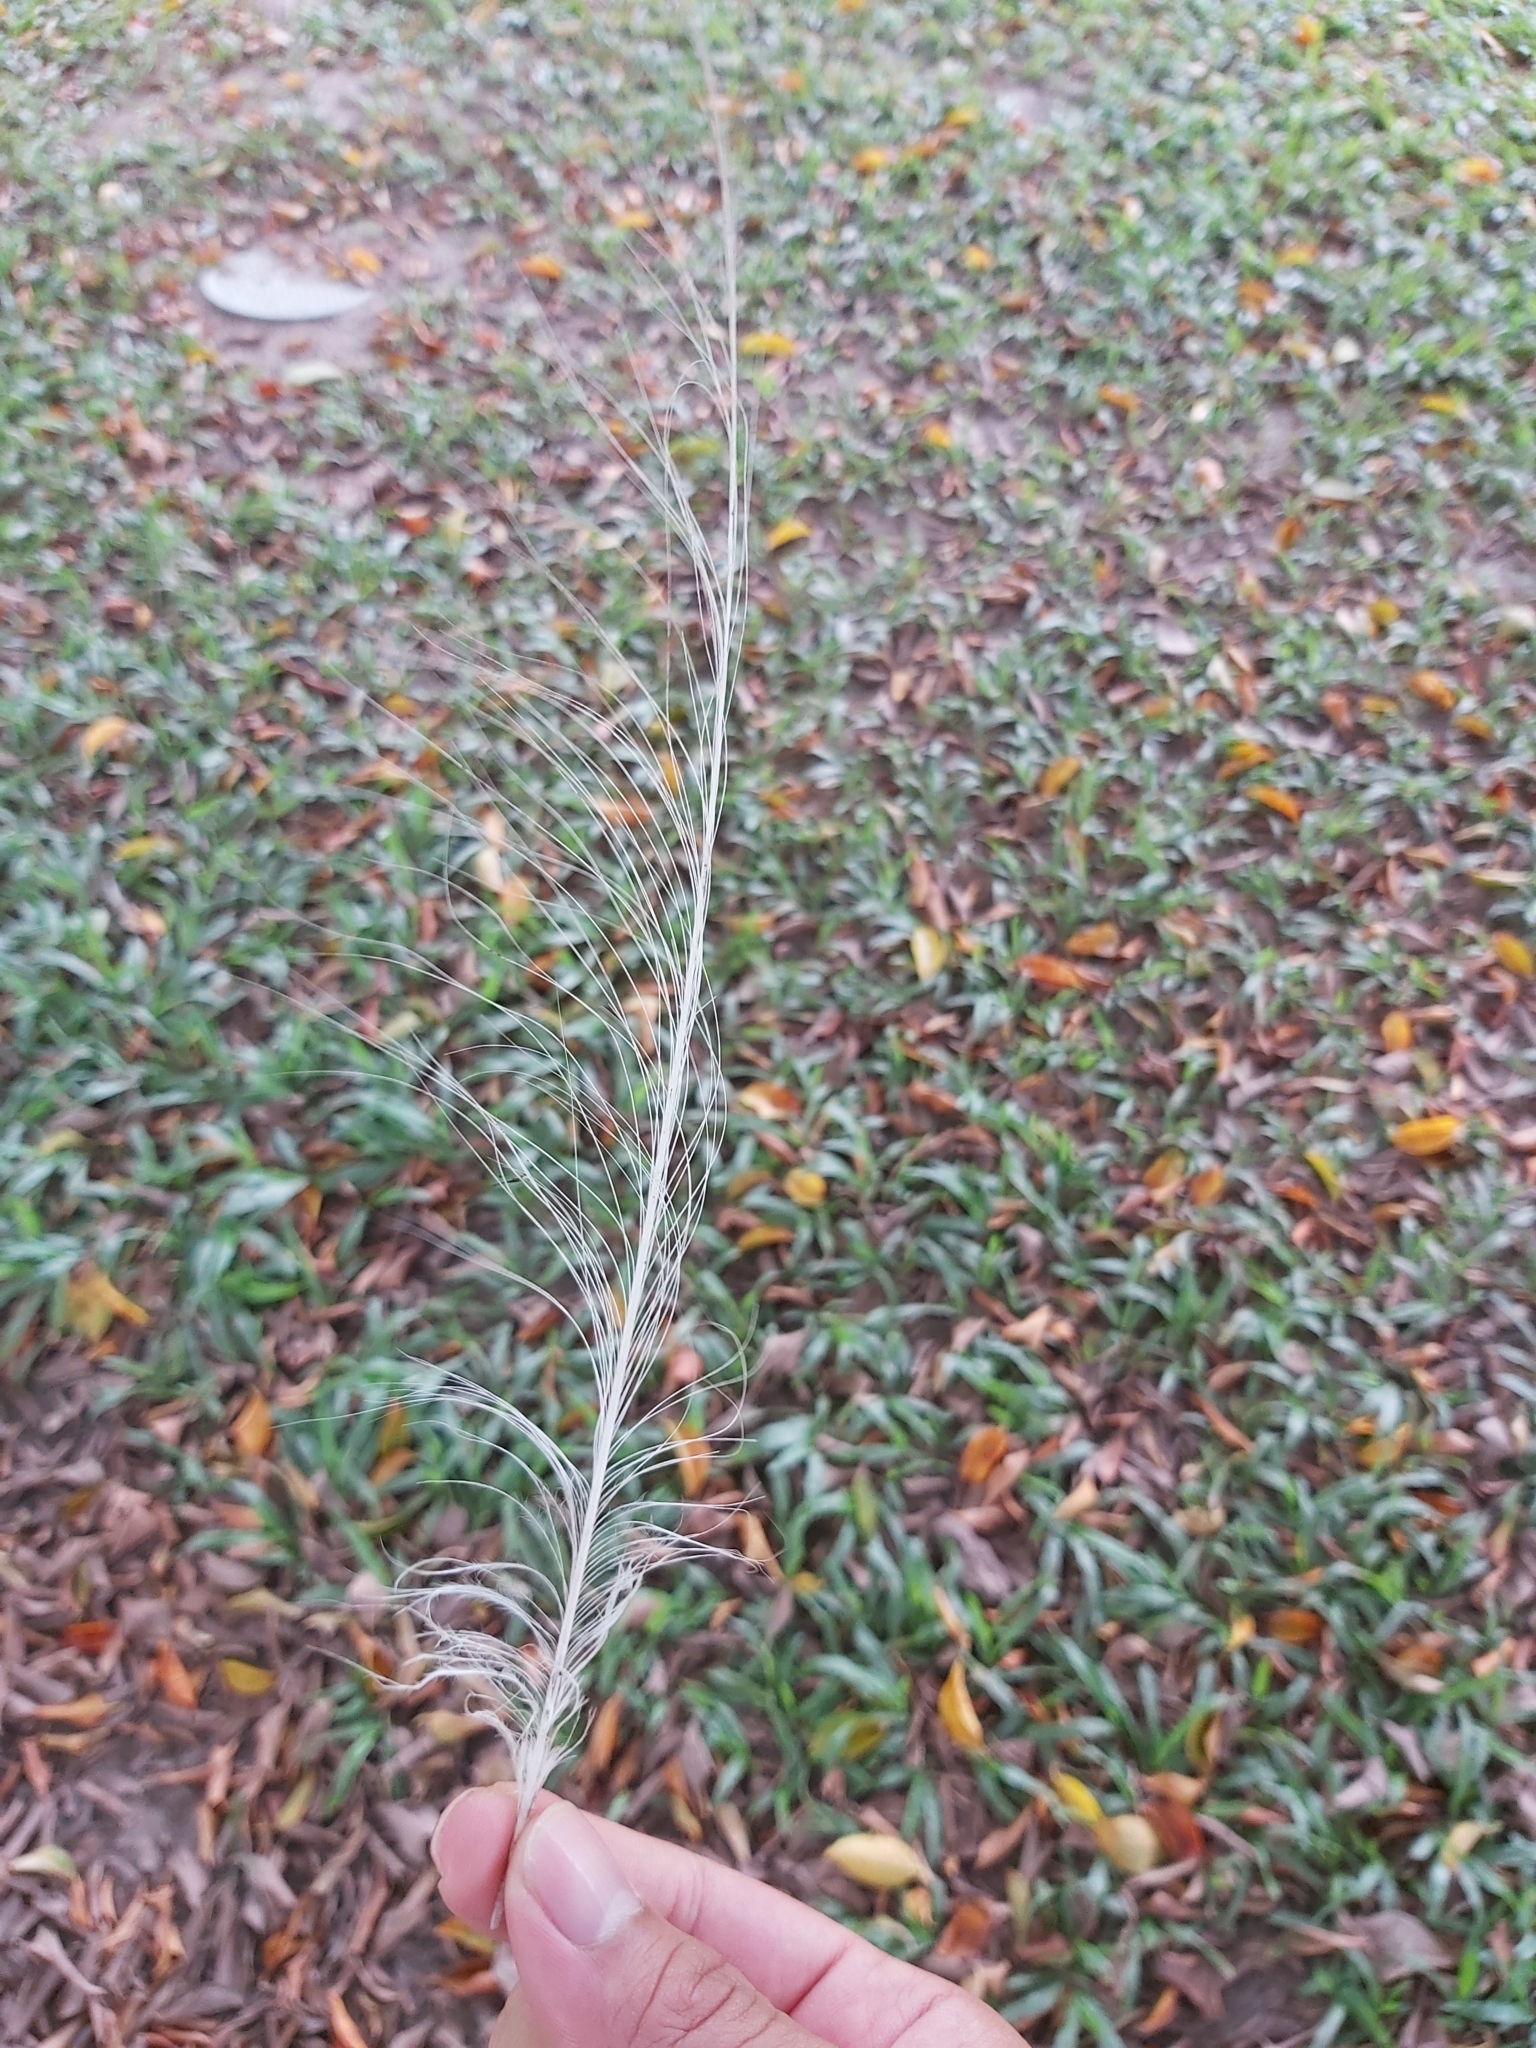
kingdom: Animalia
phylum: Chordata
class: Aves
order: Pelecaniformes
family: Ardeidae
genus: Ardea
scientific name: Ardea alba
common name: Great egret
